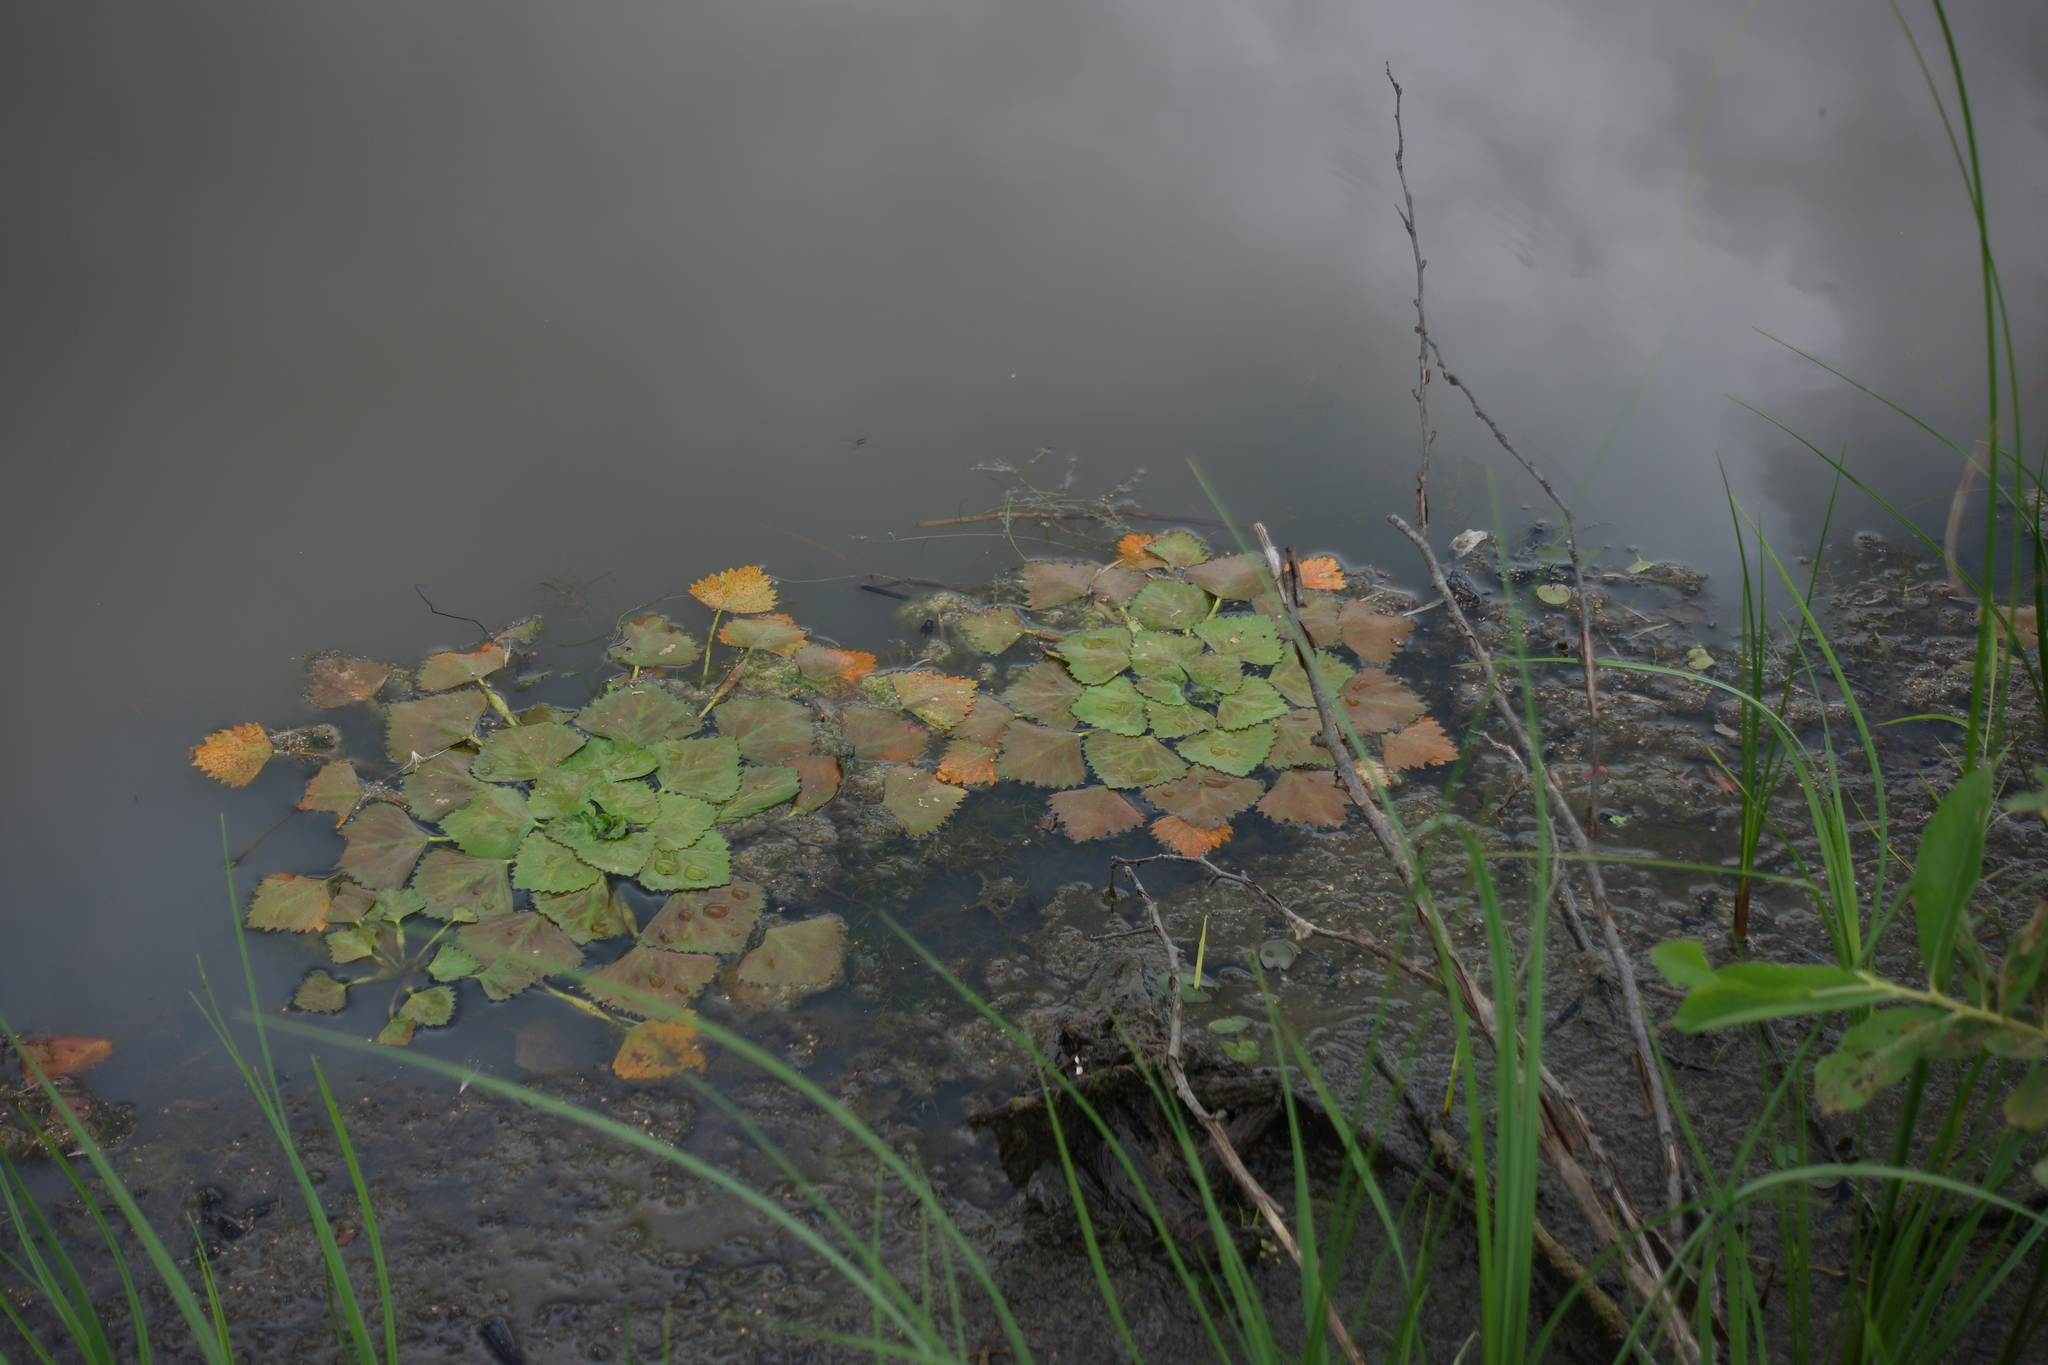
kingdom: Plantae
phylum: Tracheophyta
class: Magnoliopsida
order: Myrtales
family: Lythraceae
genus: Trapa
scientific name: Trapa natans
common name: Water chestnut
